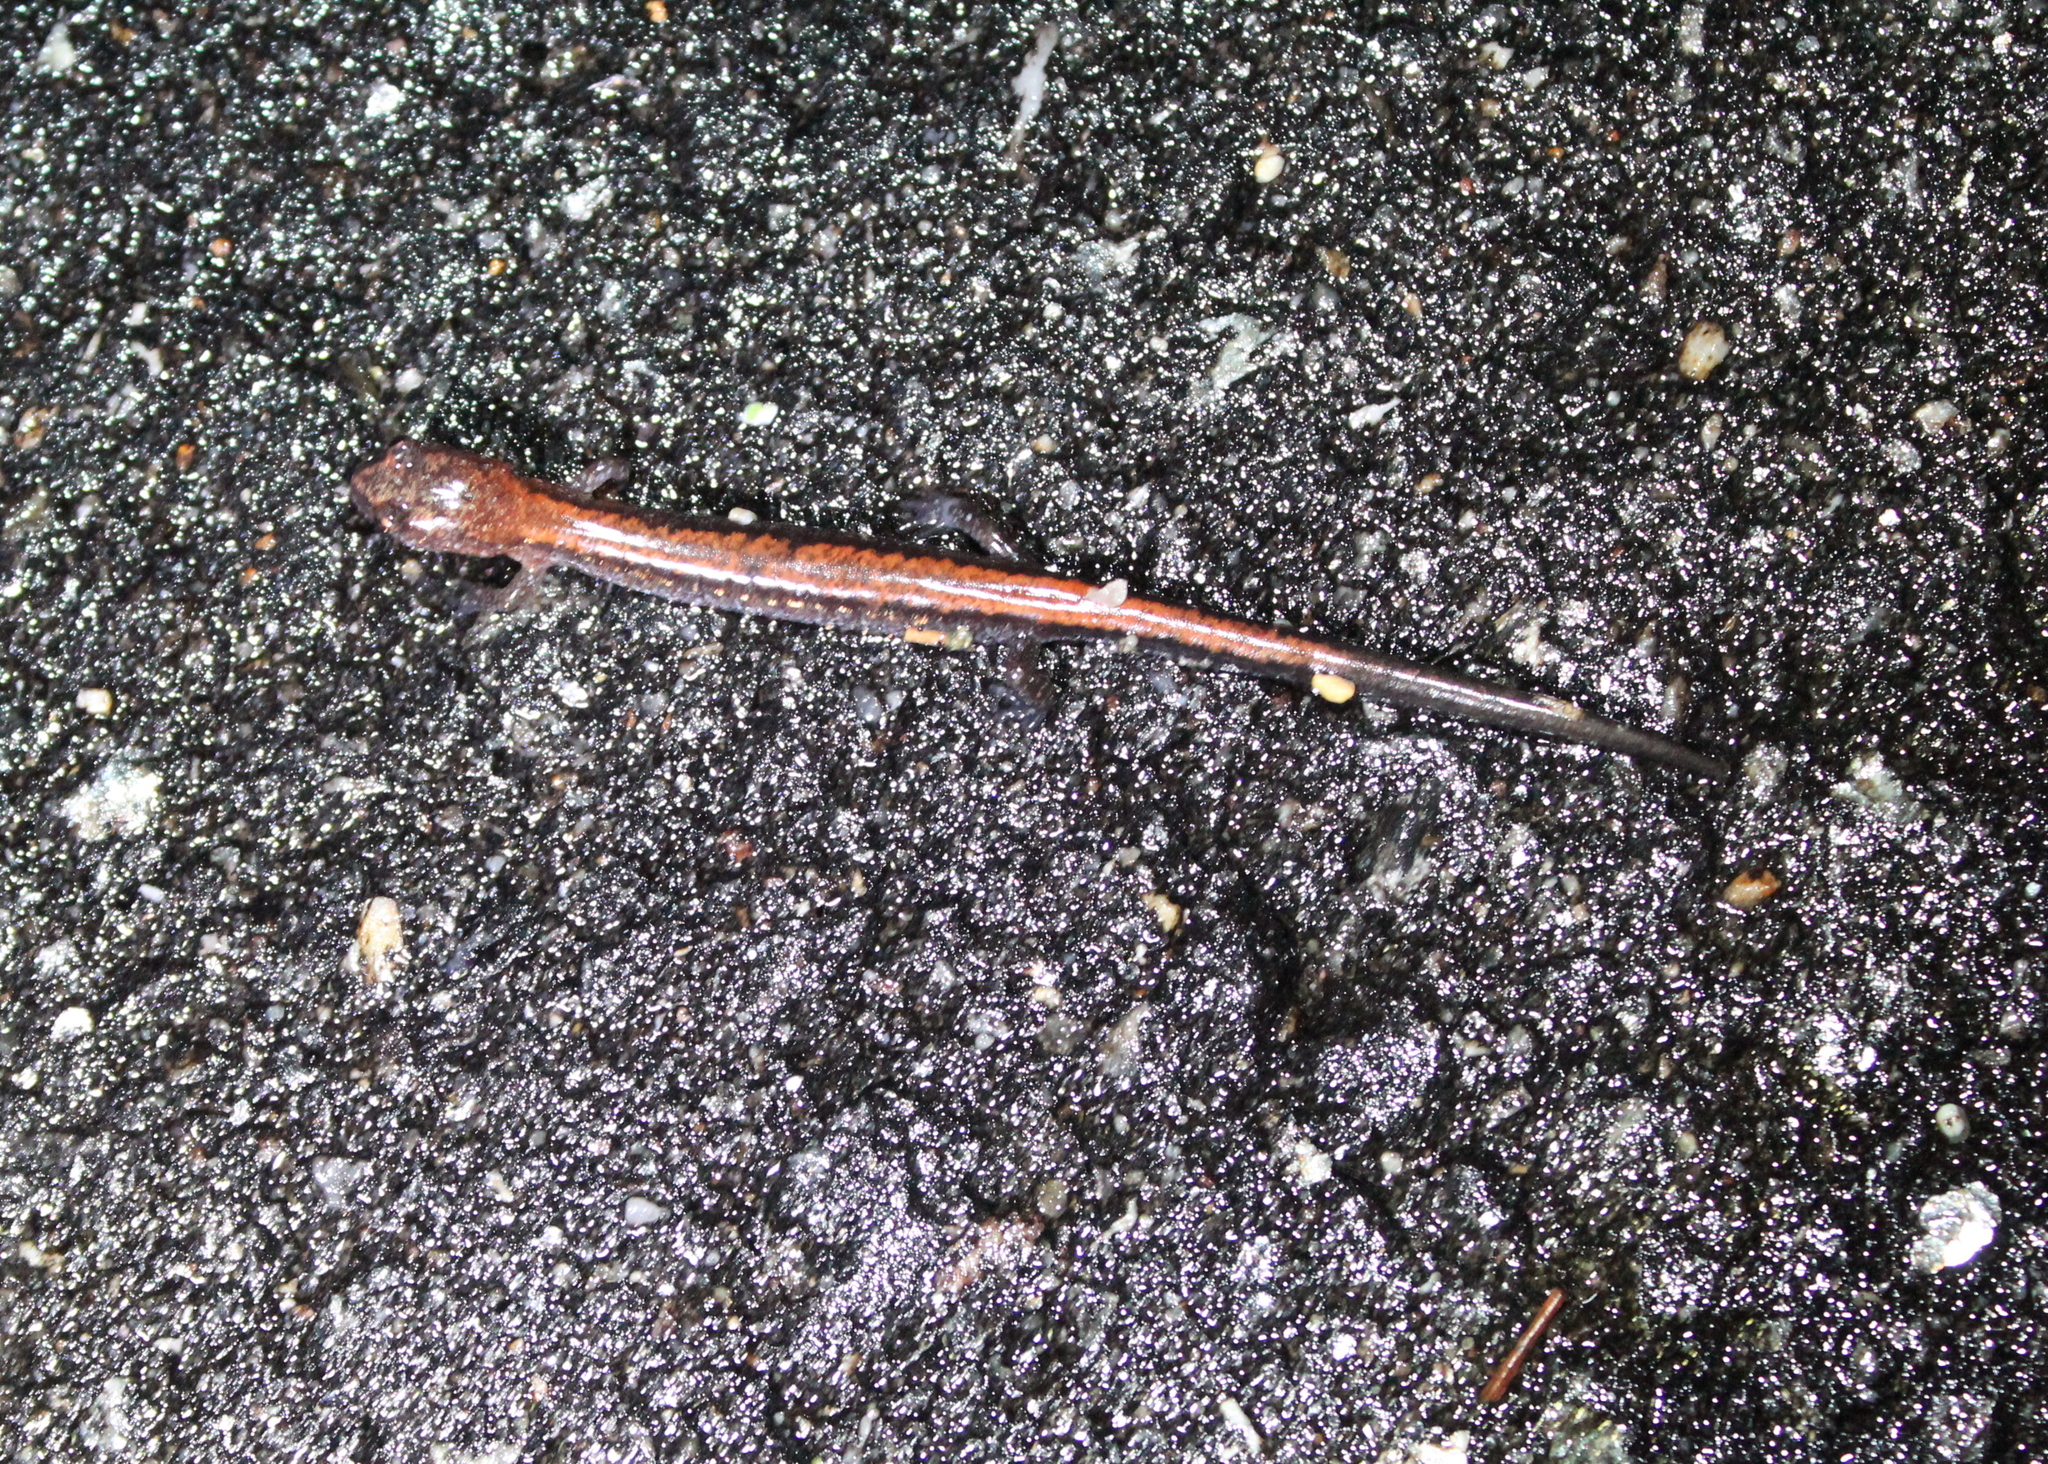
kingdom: Animalia
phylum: Chordata
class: Amphibia
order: Caudata
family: Plethodontidae
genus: Plethodon
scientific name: Plethodon cinereus
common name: Redback salamander
